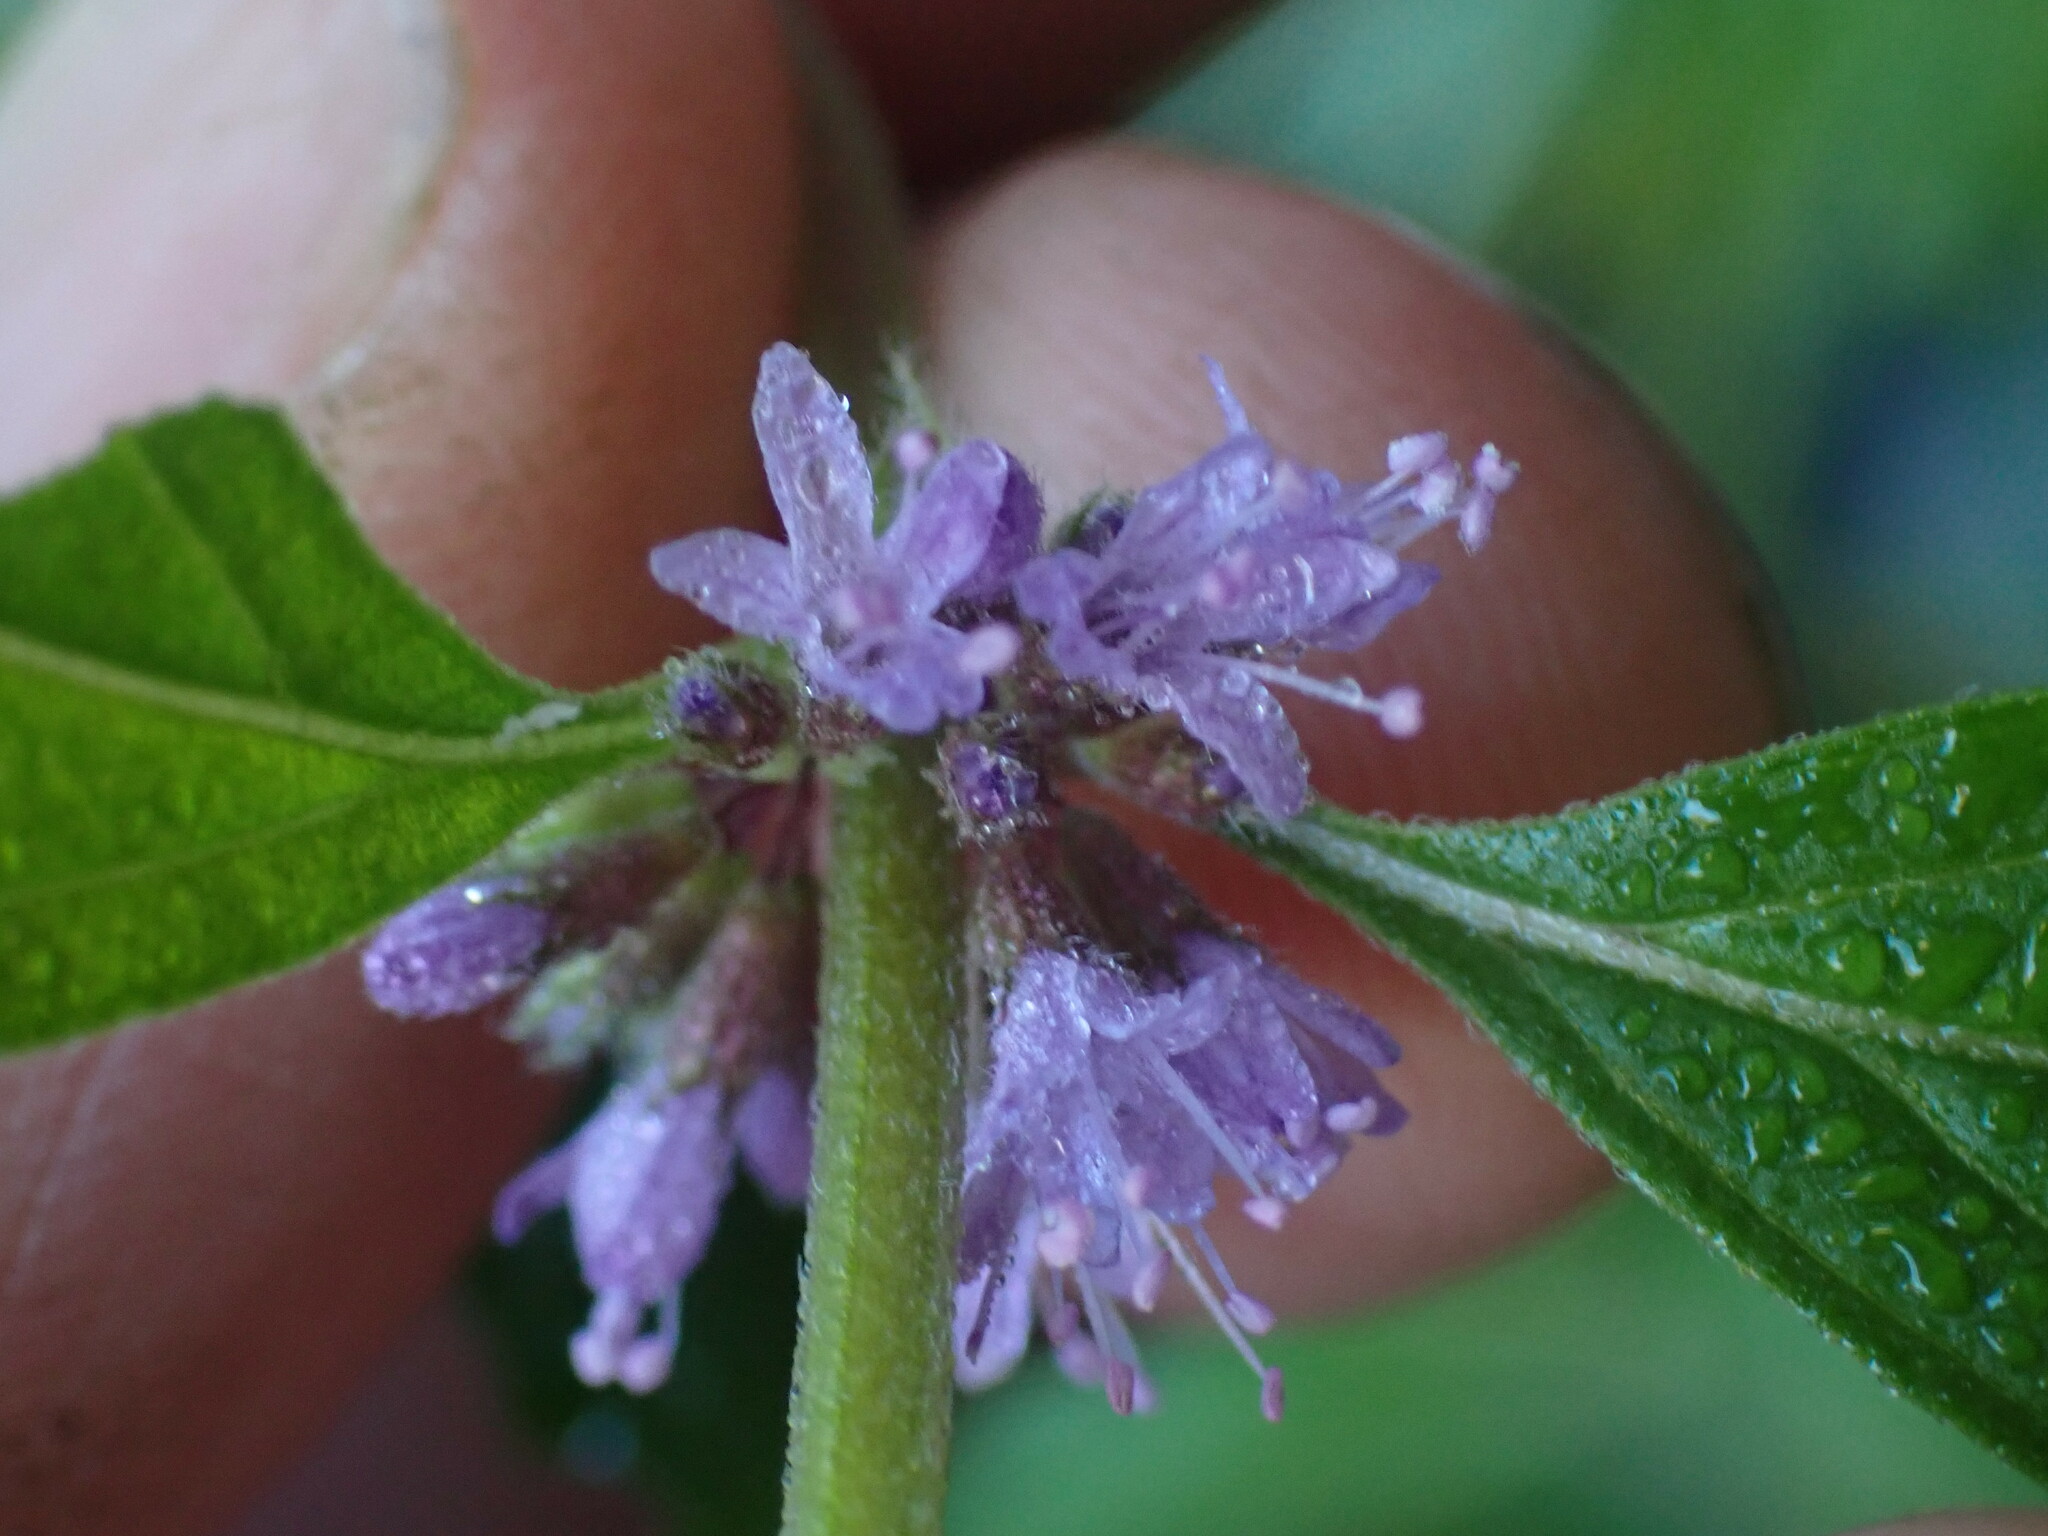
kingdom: Plantae
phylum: Tracheophyta
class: Magnoliopsida
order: Lamiales
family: Lamiaceae
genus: Mentha
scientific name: Mentha canadensis
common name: American corn mint
